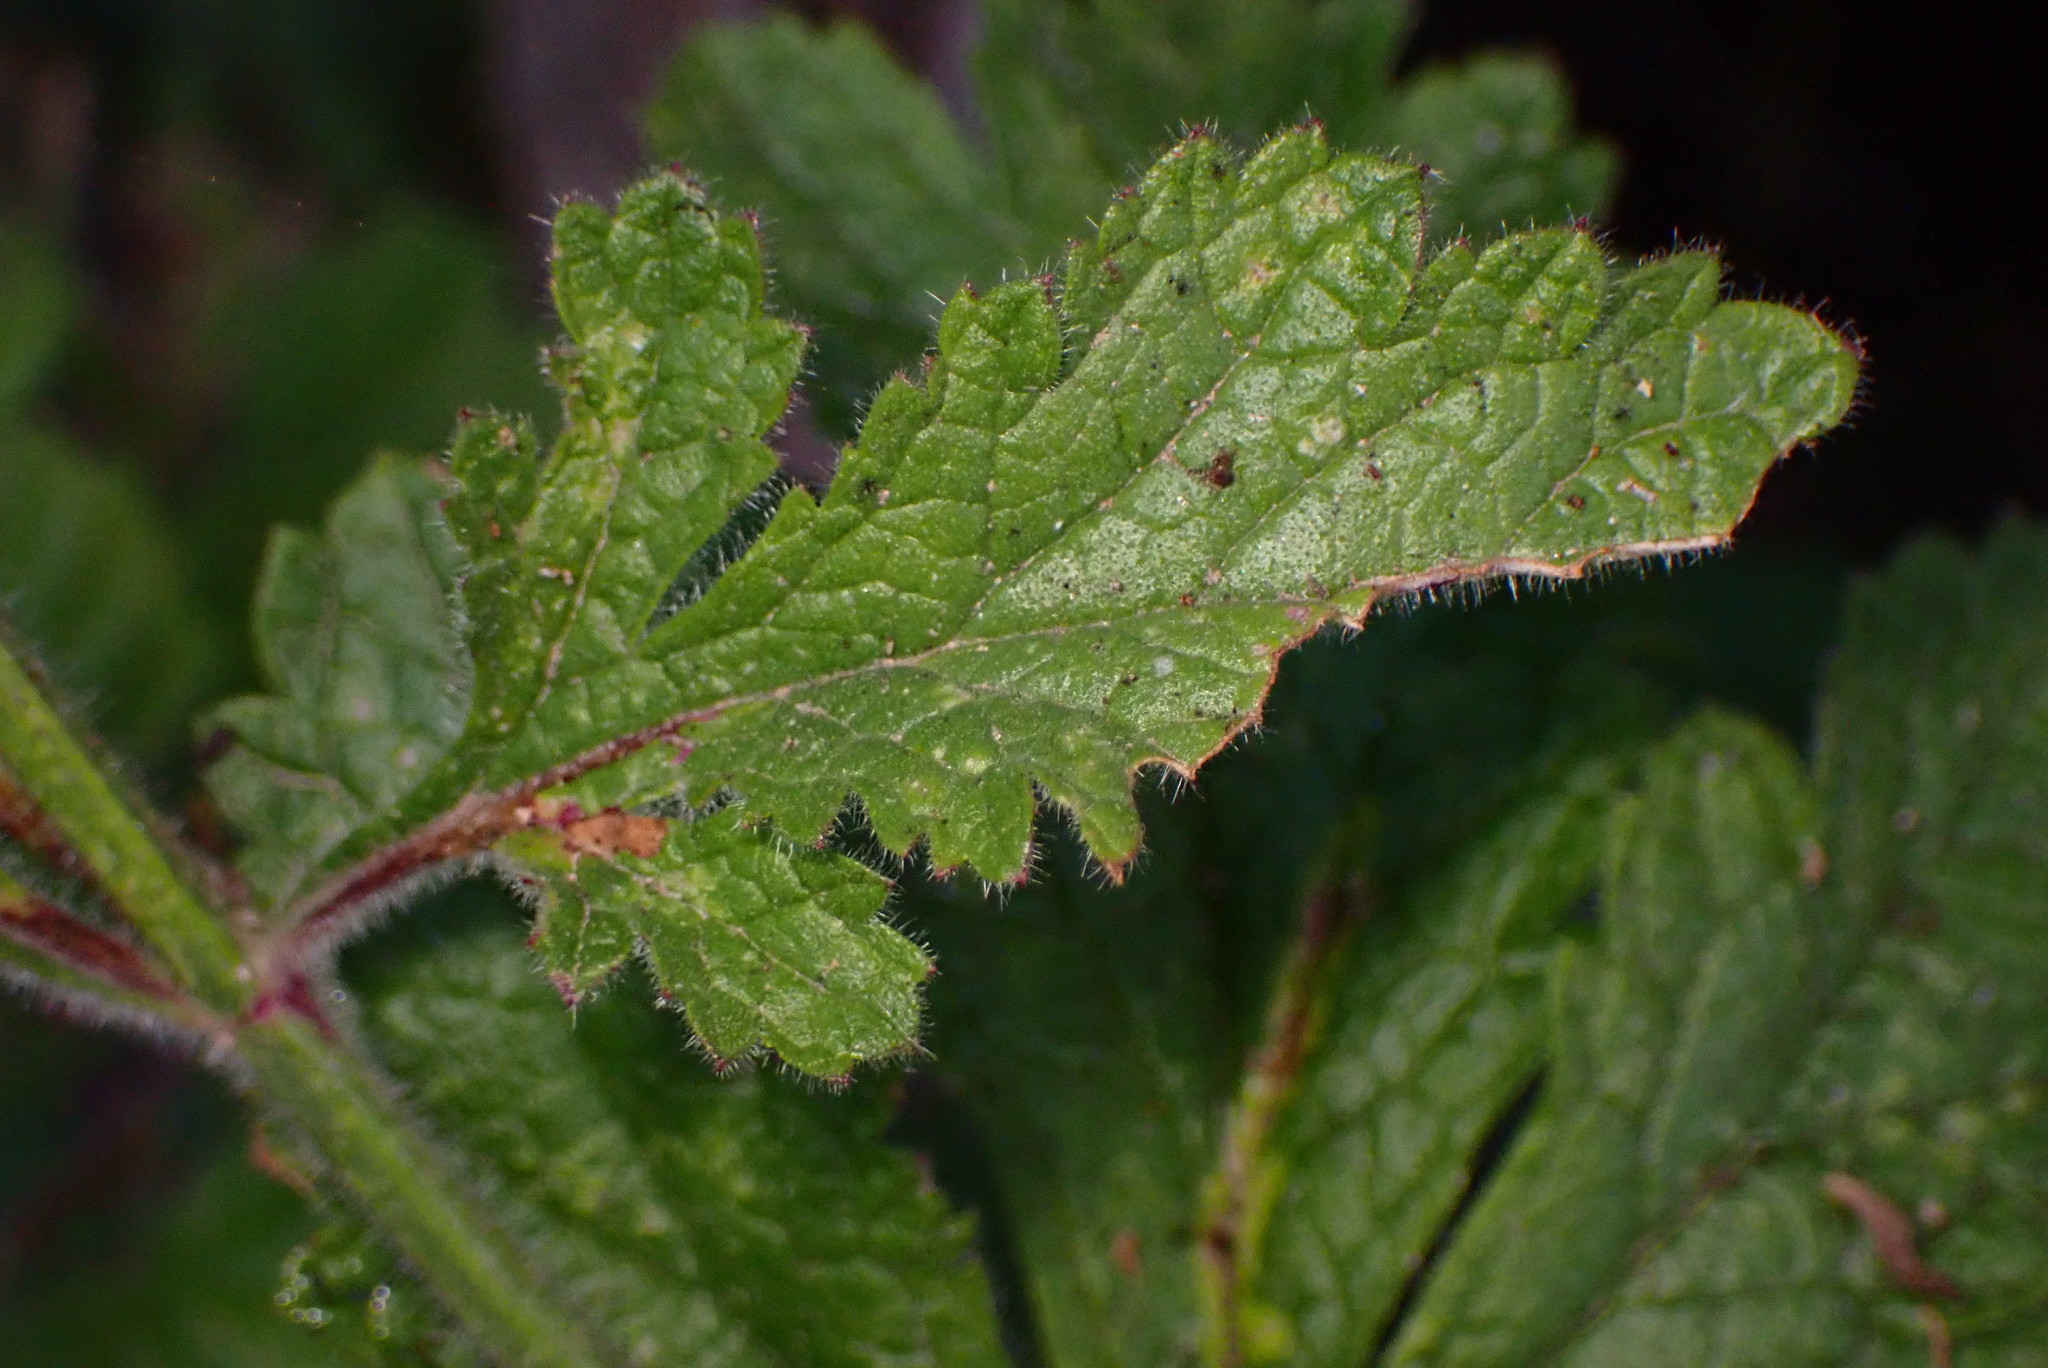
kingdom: Plantae
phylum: Tracheophyta
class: Magnoliopsida
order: Lamiales
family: Verbenaceae
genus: Verbena
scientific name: Verbena lasiostachys
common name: Vervain
